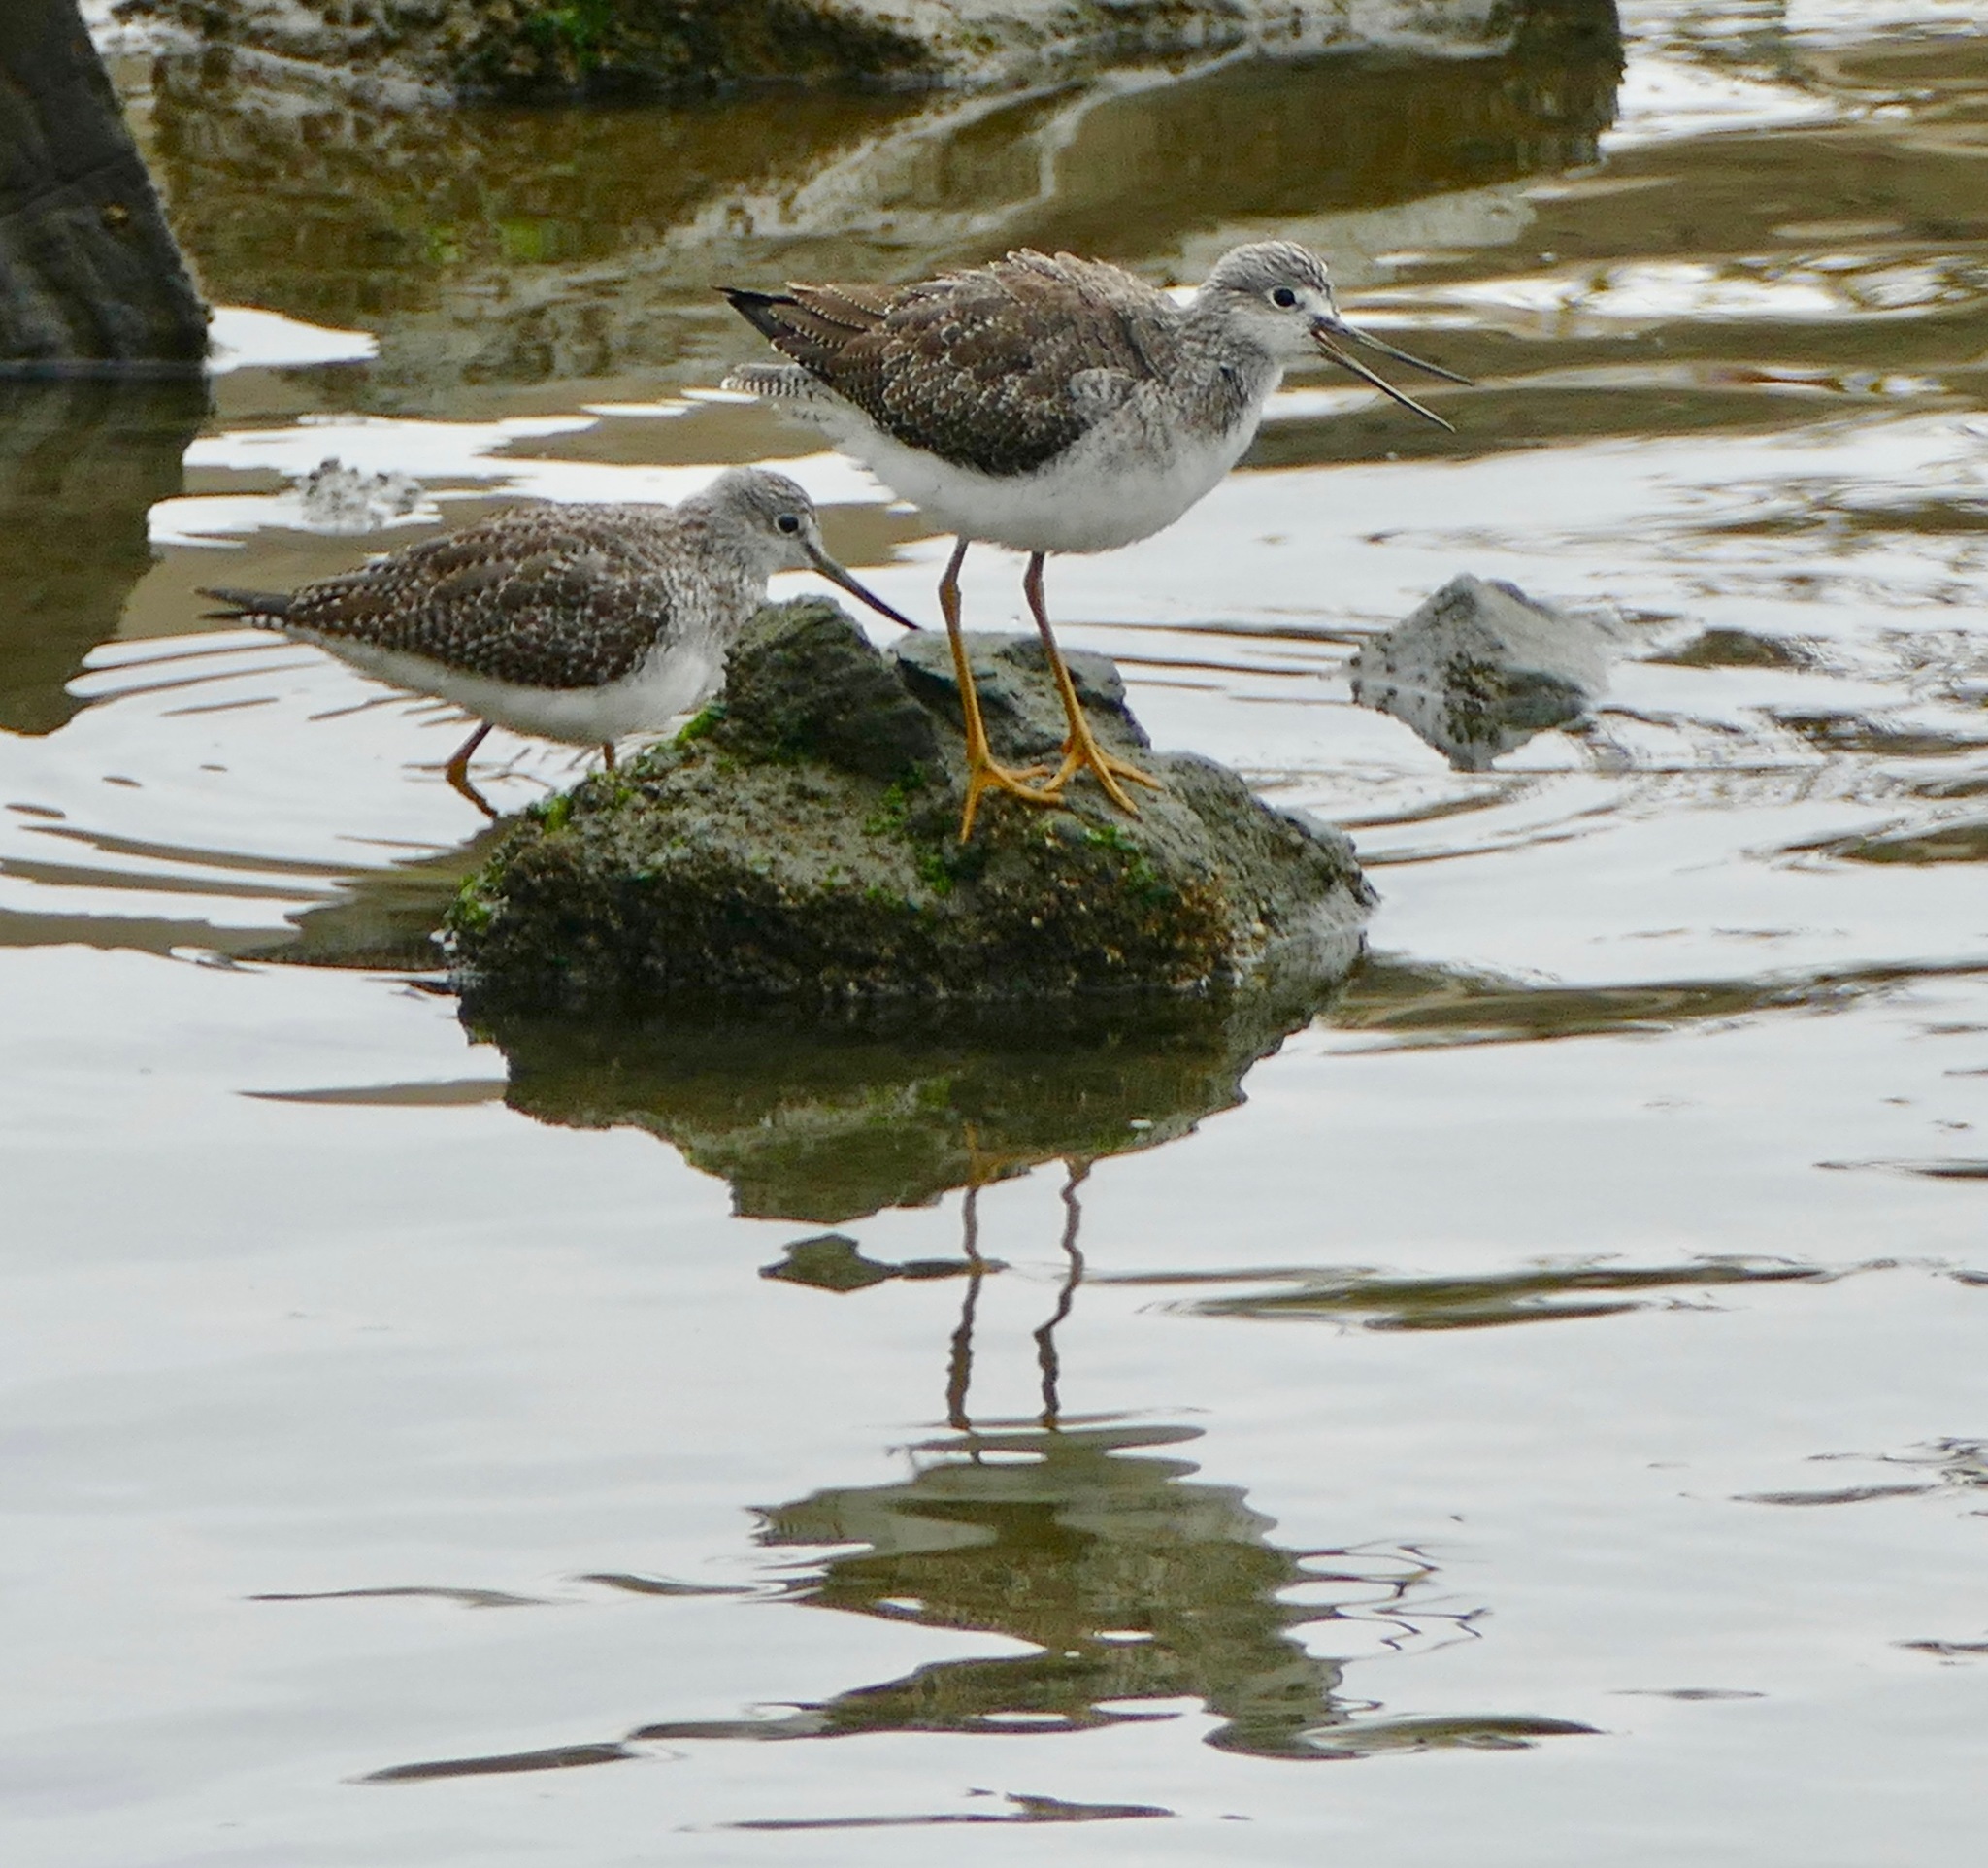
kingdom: Animalia
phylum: Chordata
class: Aves
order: Charadriiformes
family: Scolopacidae
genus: Tringa
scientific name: Tringa flavipes
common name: Lesser yellowlegs
